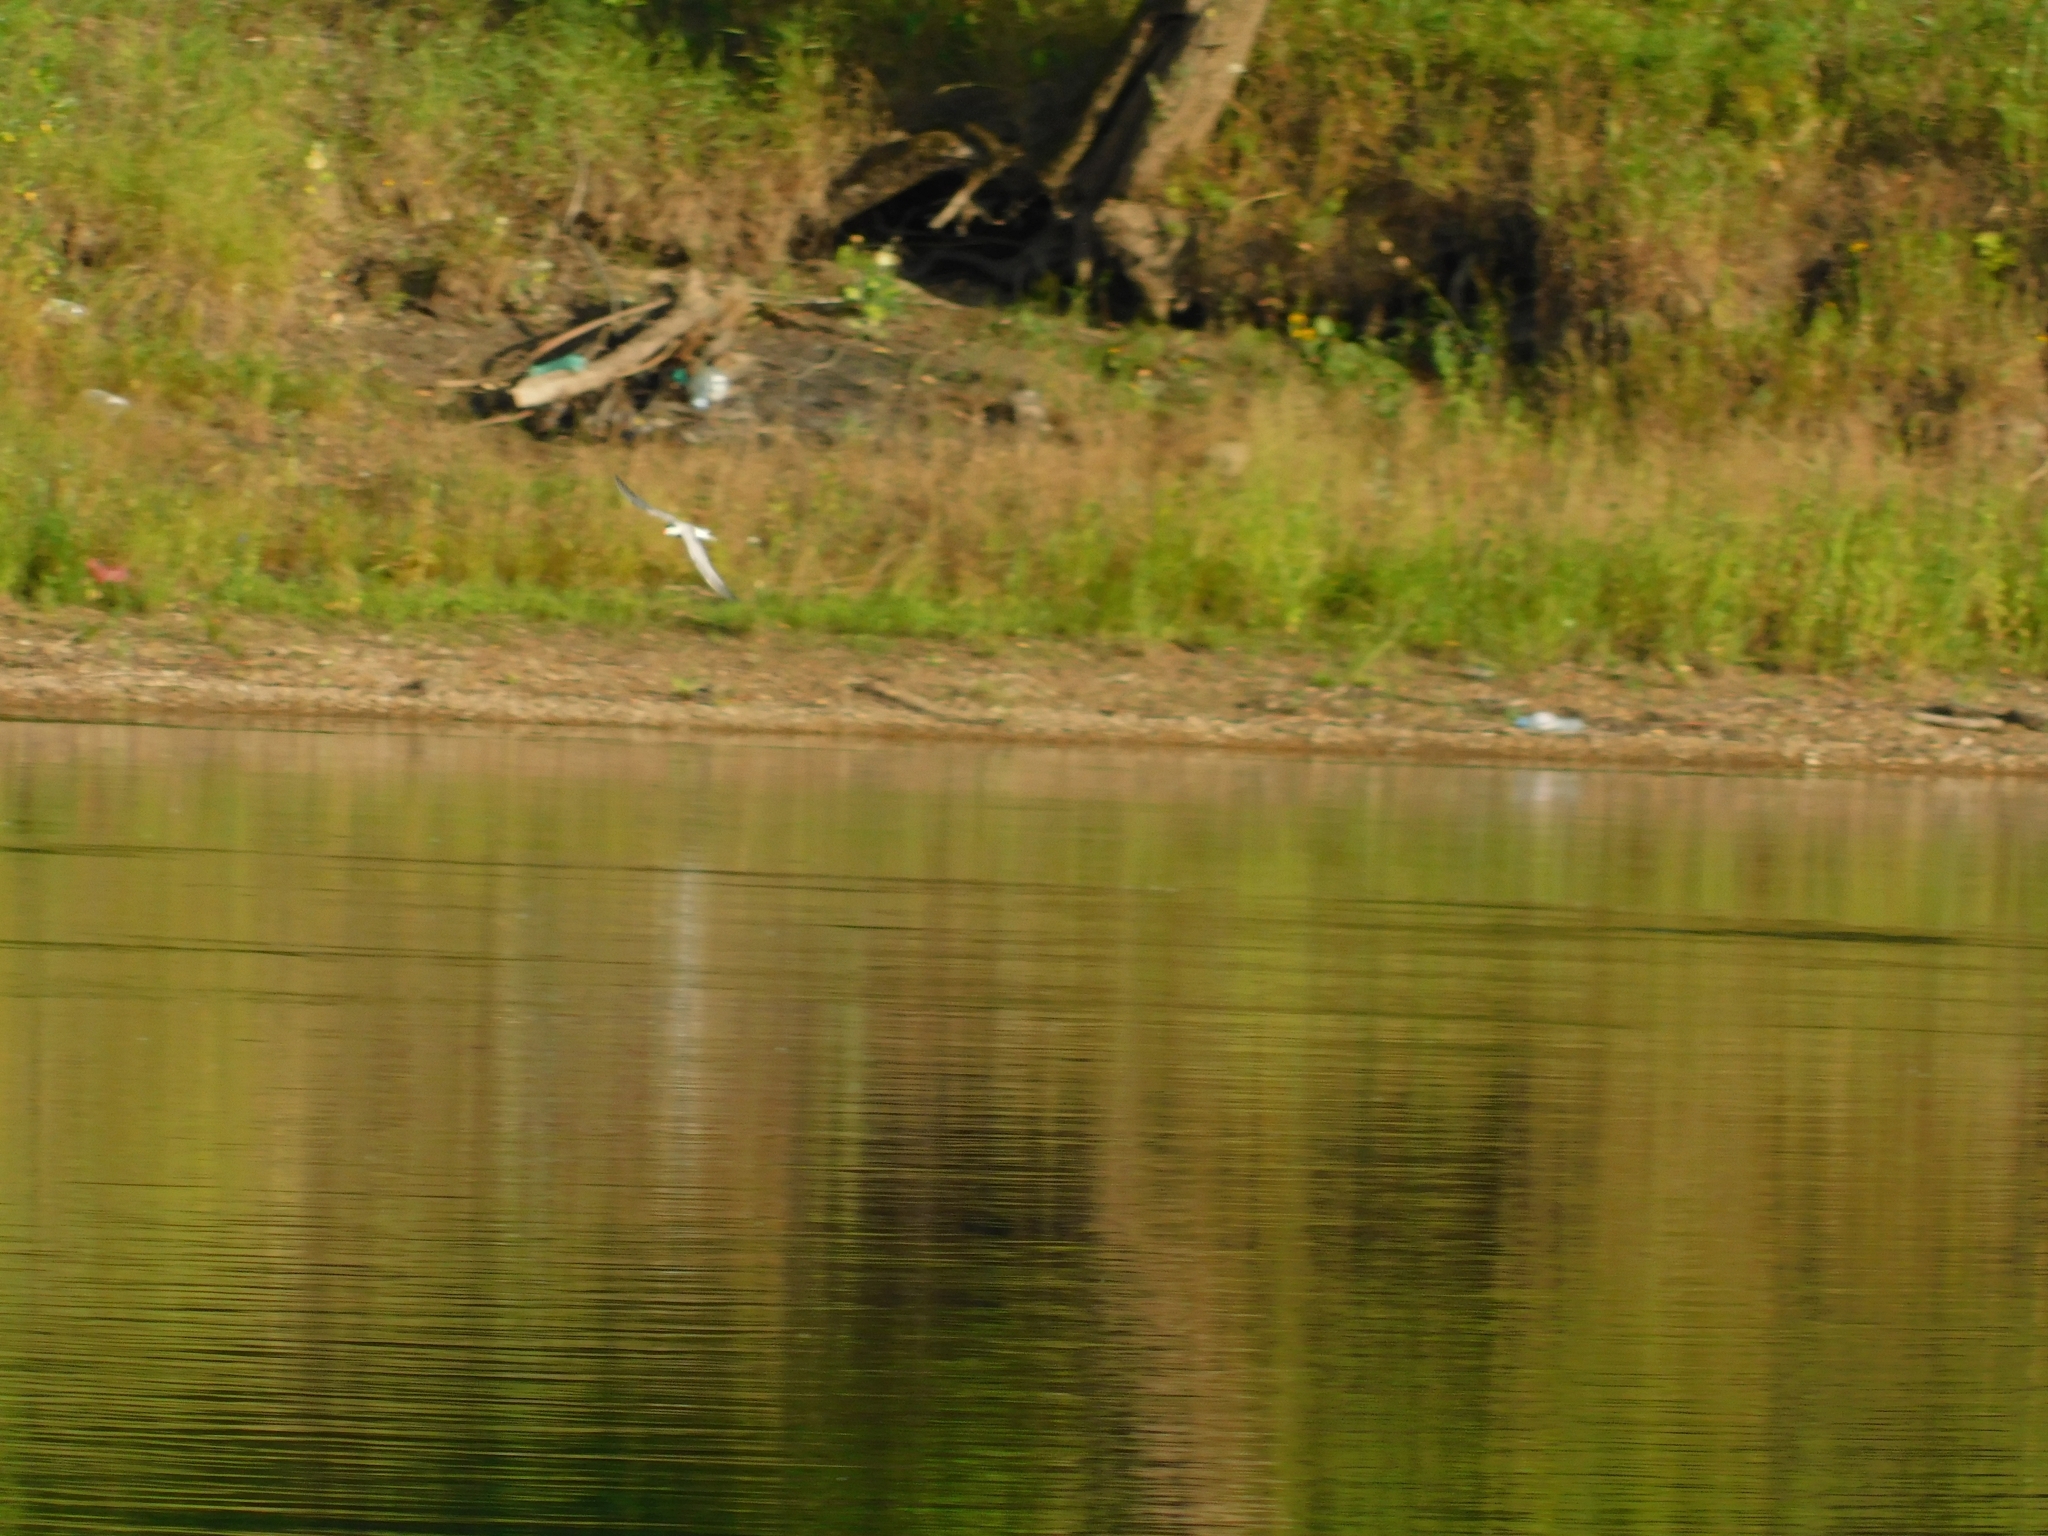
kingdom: Animalia
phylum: Chordata
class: Aves
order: Charadriiformes
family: Laridae
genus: Sterna
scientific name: Sterna hirundo
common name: Common tern
